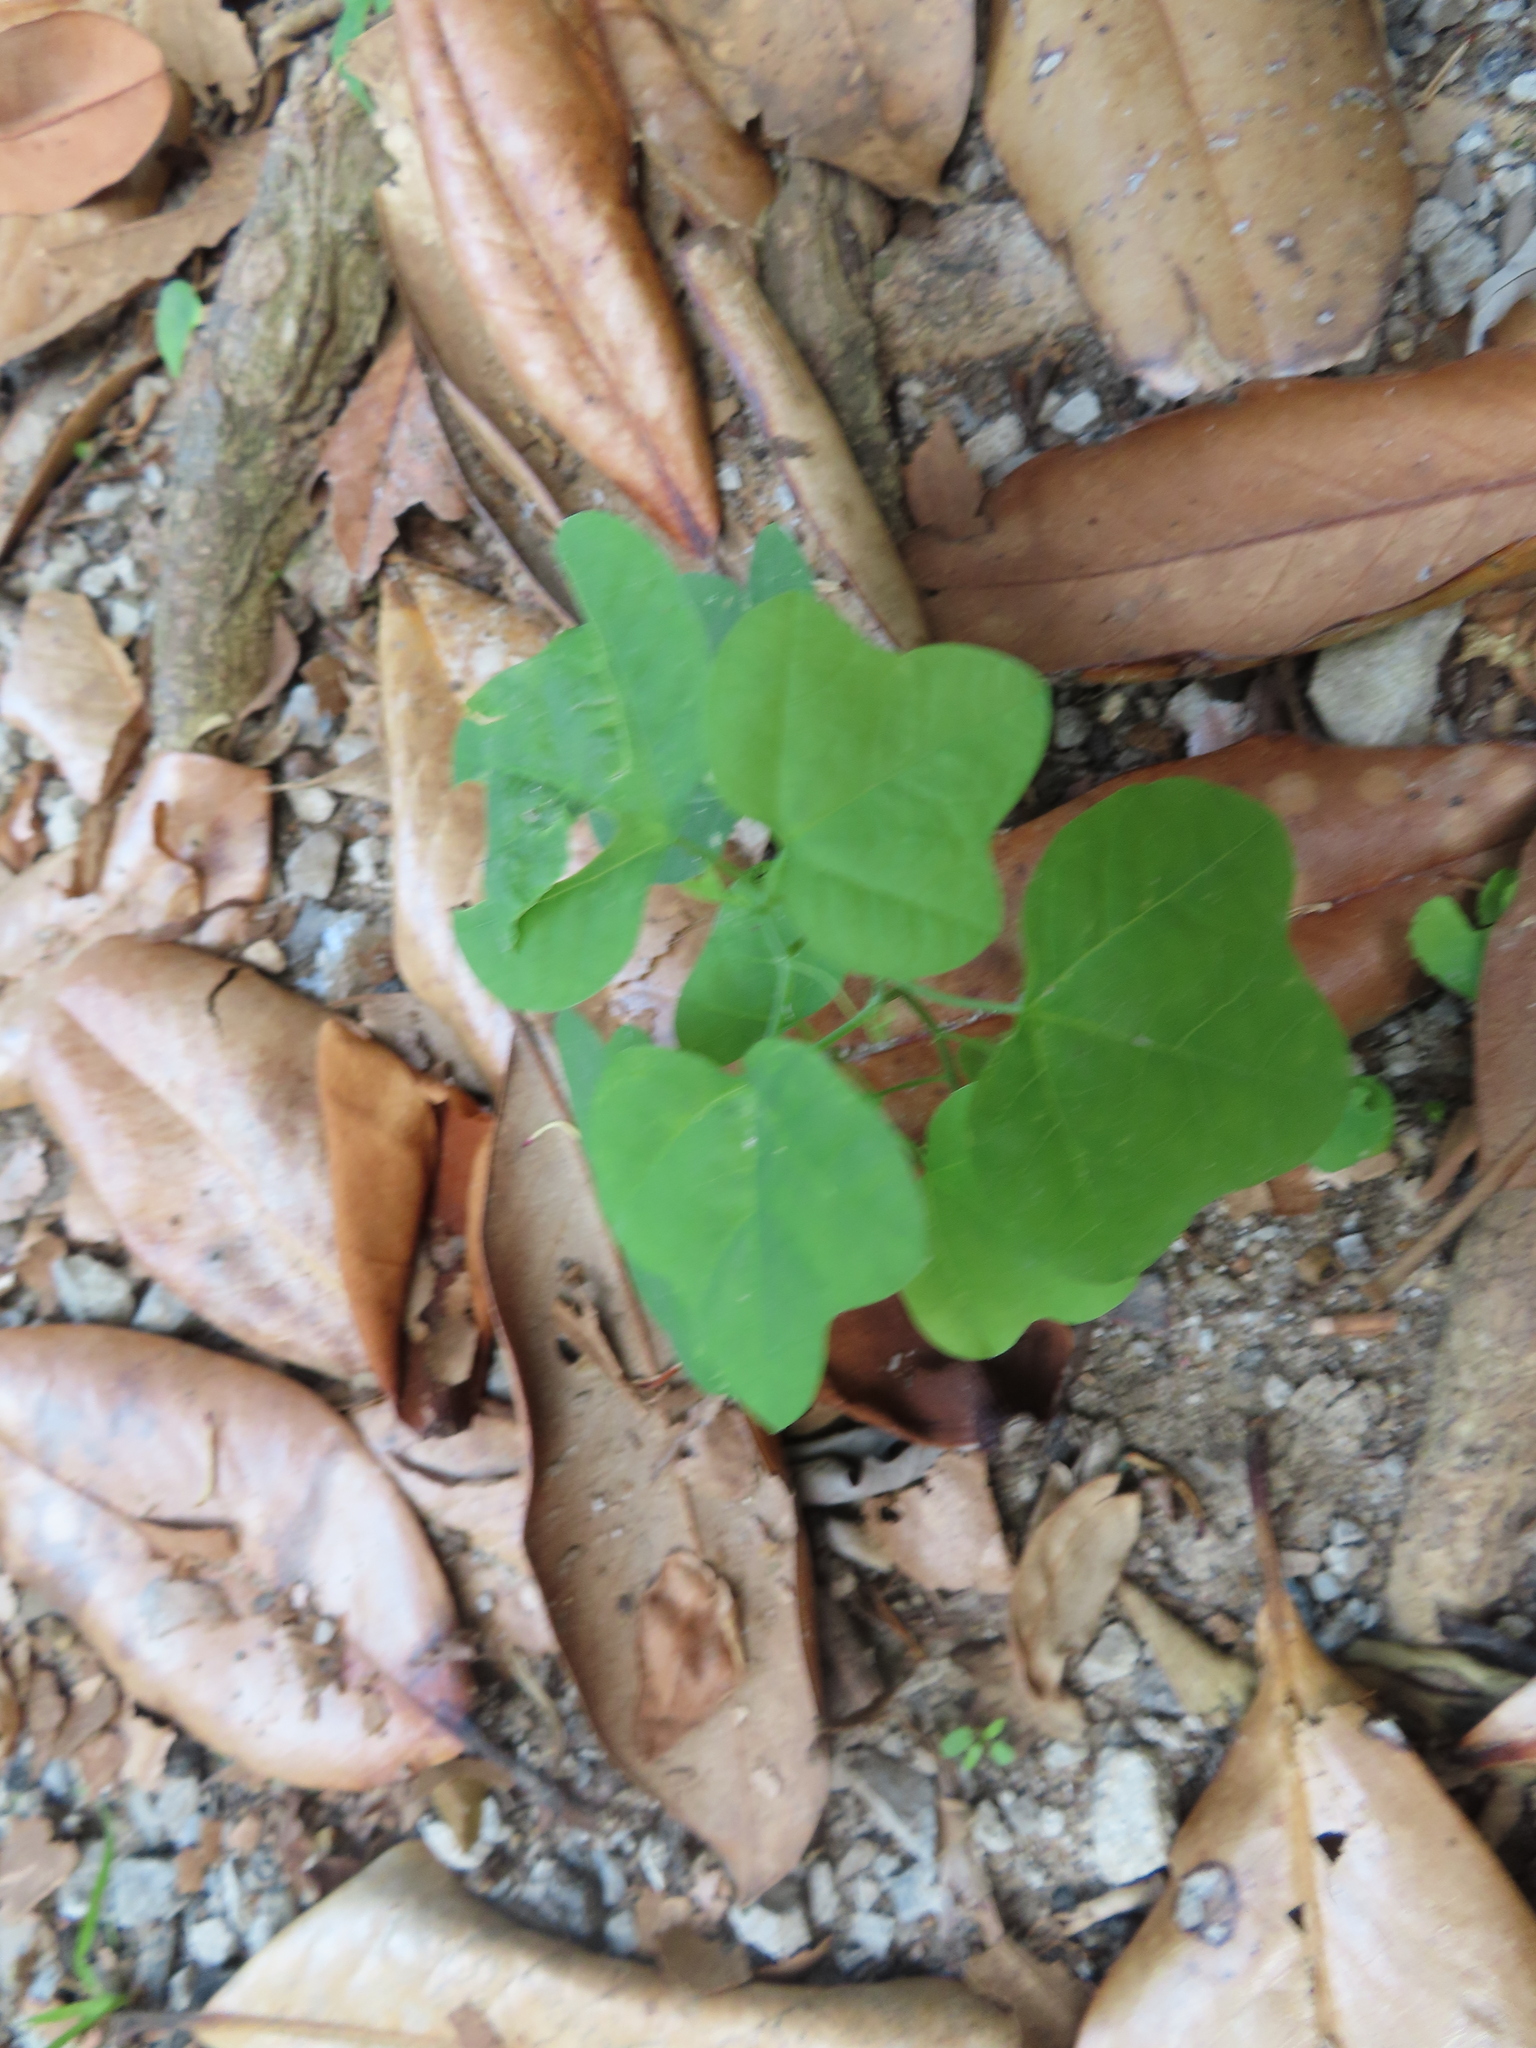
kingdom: Plantae
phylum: Tracheophyta
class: Magnoliopsida
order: Malpighiales
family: Passifloraceae
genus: Passiflora
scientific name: Passiflora lutea
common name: Yellow passionflower
